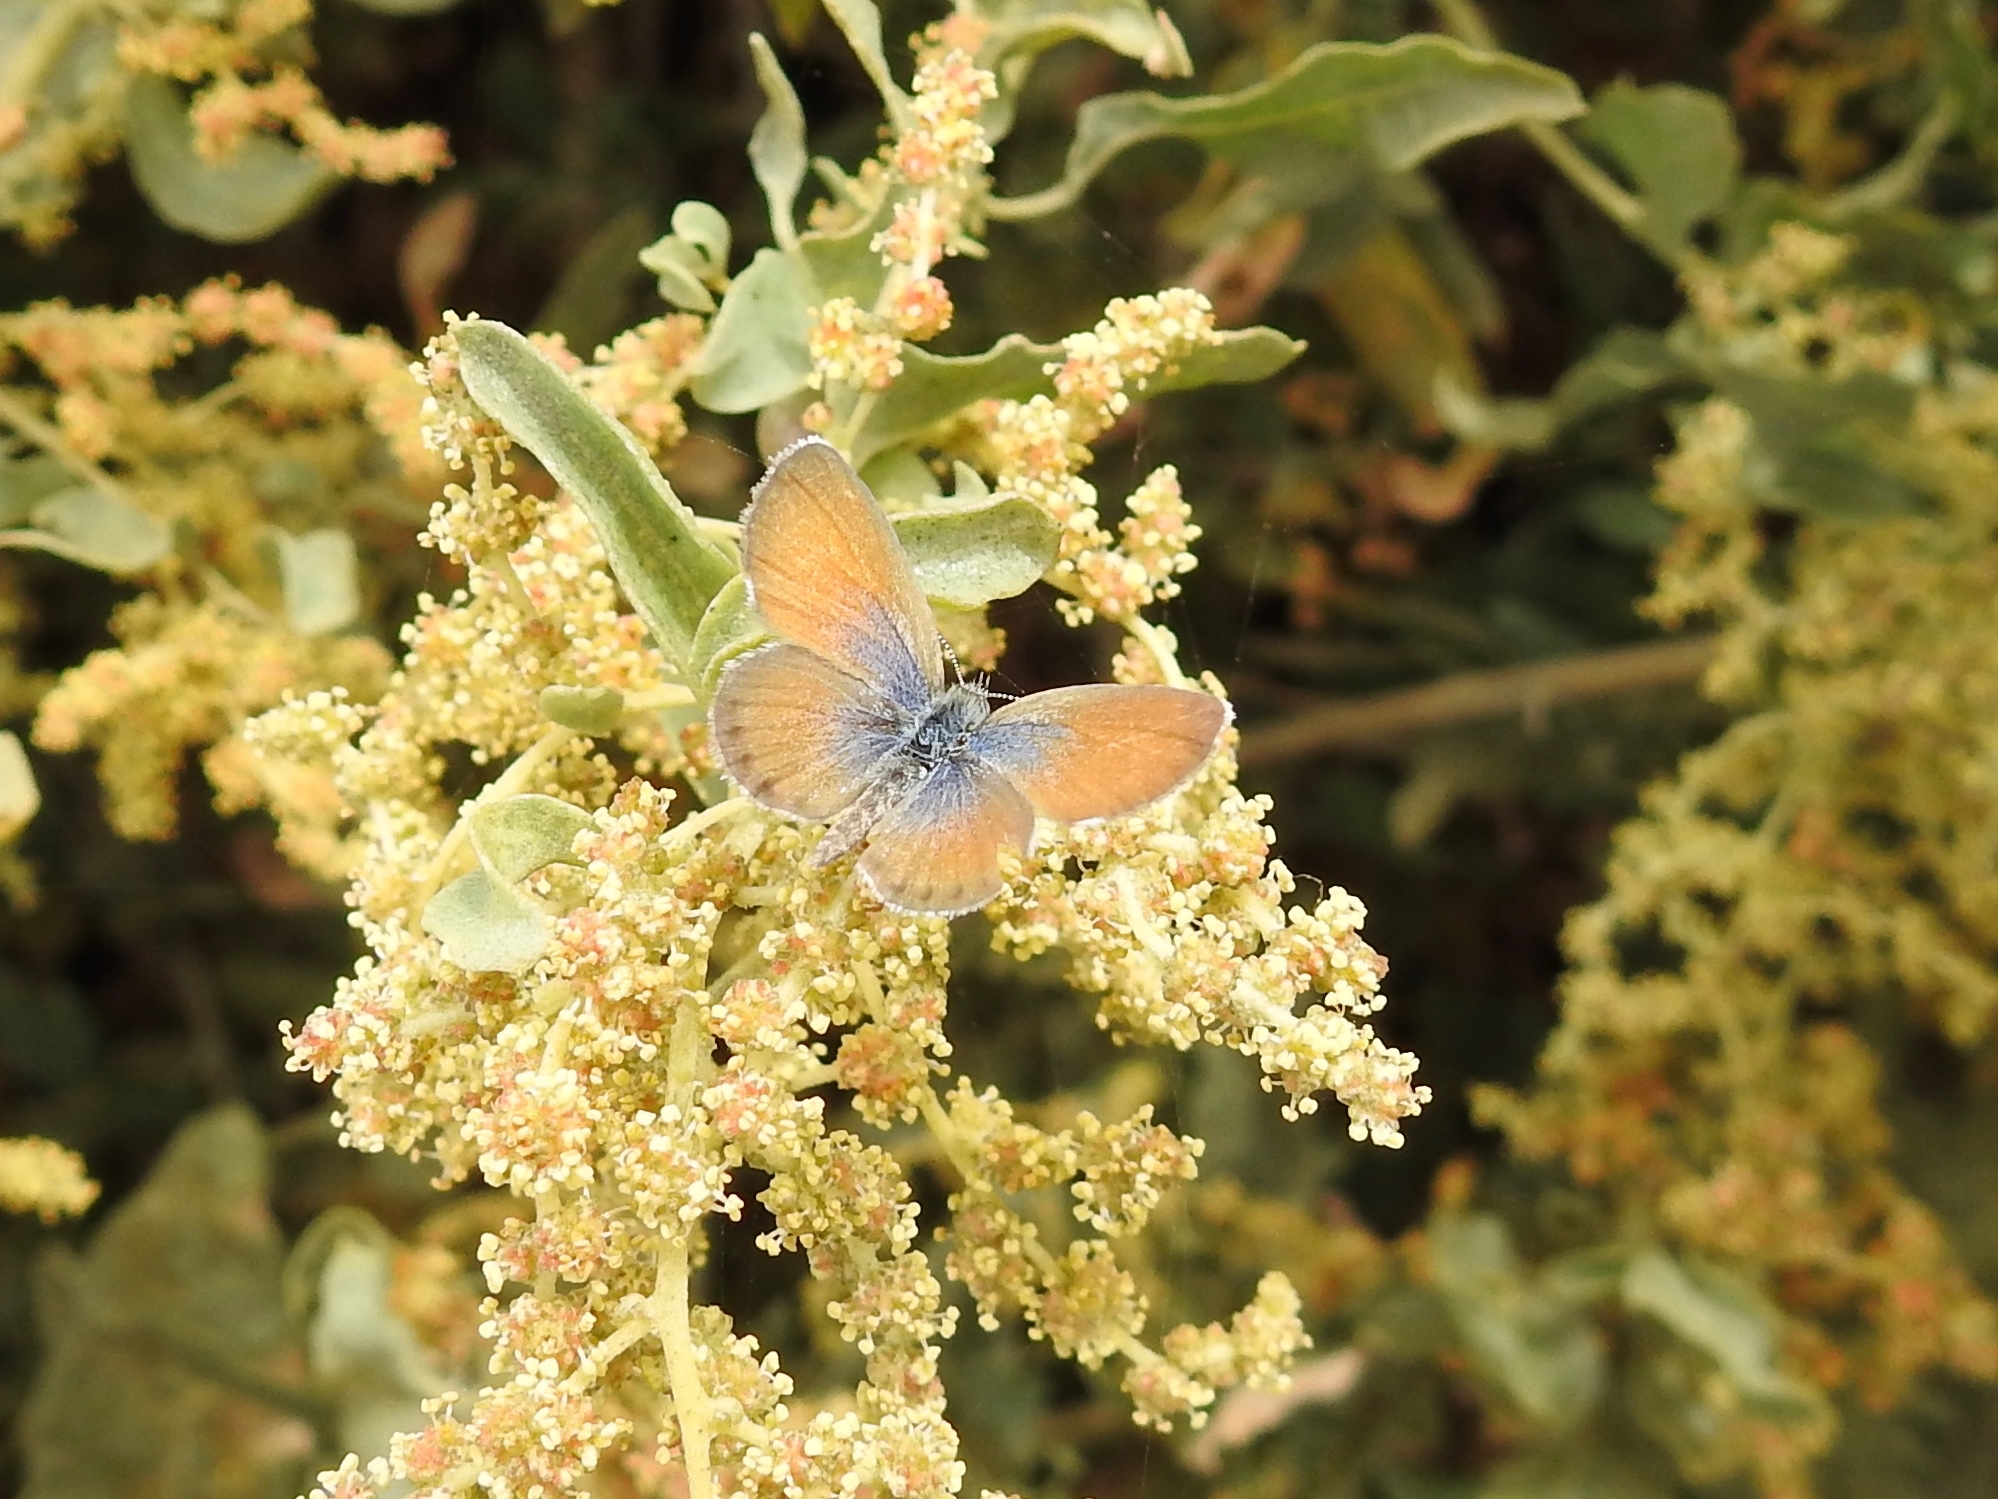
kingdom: Animalia
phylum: Arthropoda
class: Insecta
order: Lepidoptera
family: Lycaenidae
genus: Brephidium
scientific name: Brephidium exilis
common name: Pygmy blue
